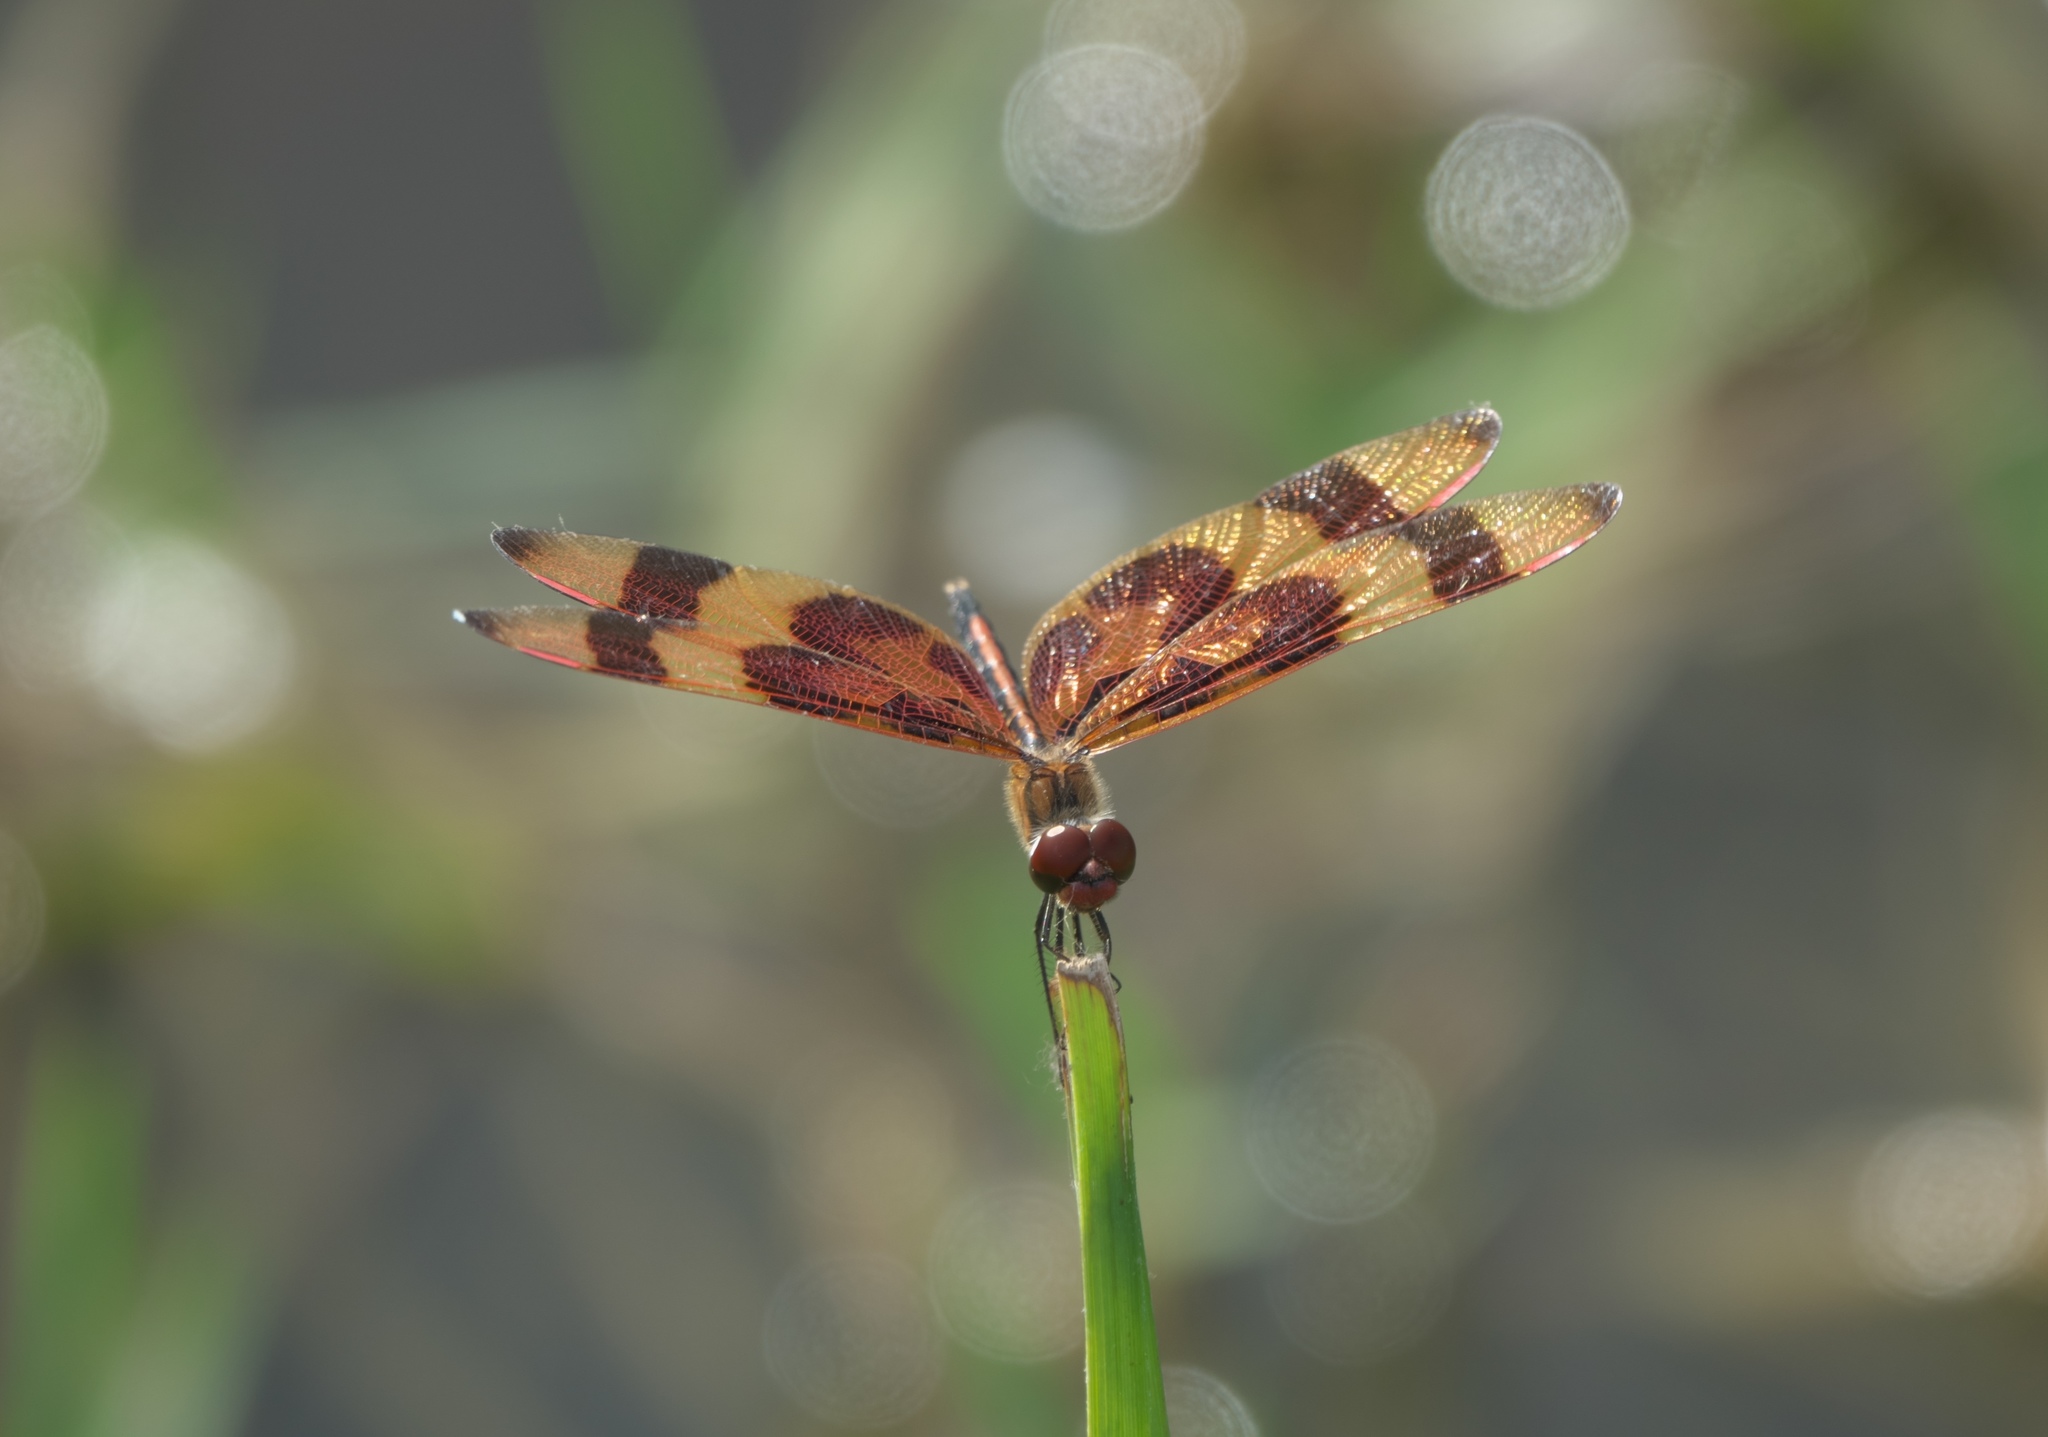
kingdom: Animalia
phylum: Arthropoda
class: Insecta
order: Odonata
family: Libellulidae
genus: Celithemis
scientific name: Celithemis eponina
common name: Halloween pennant
